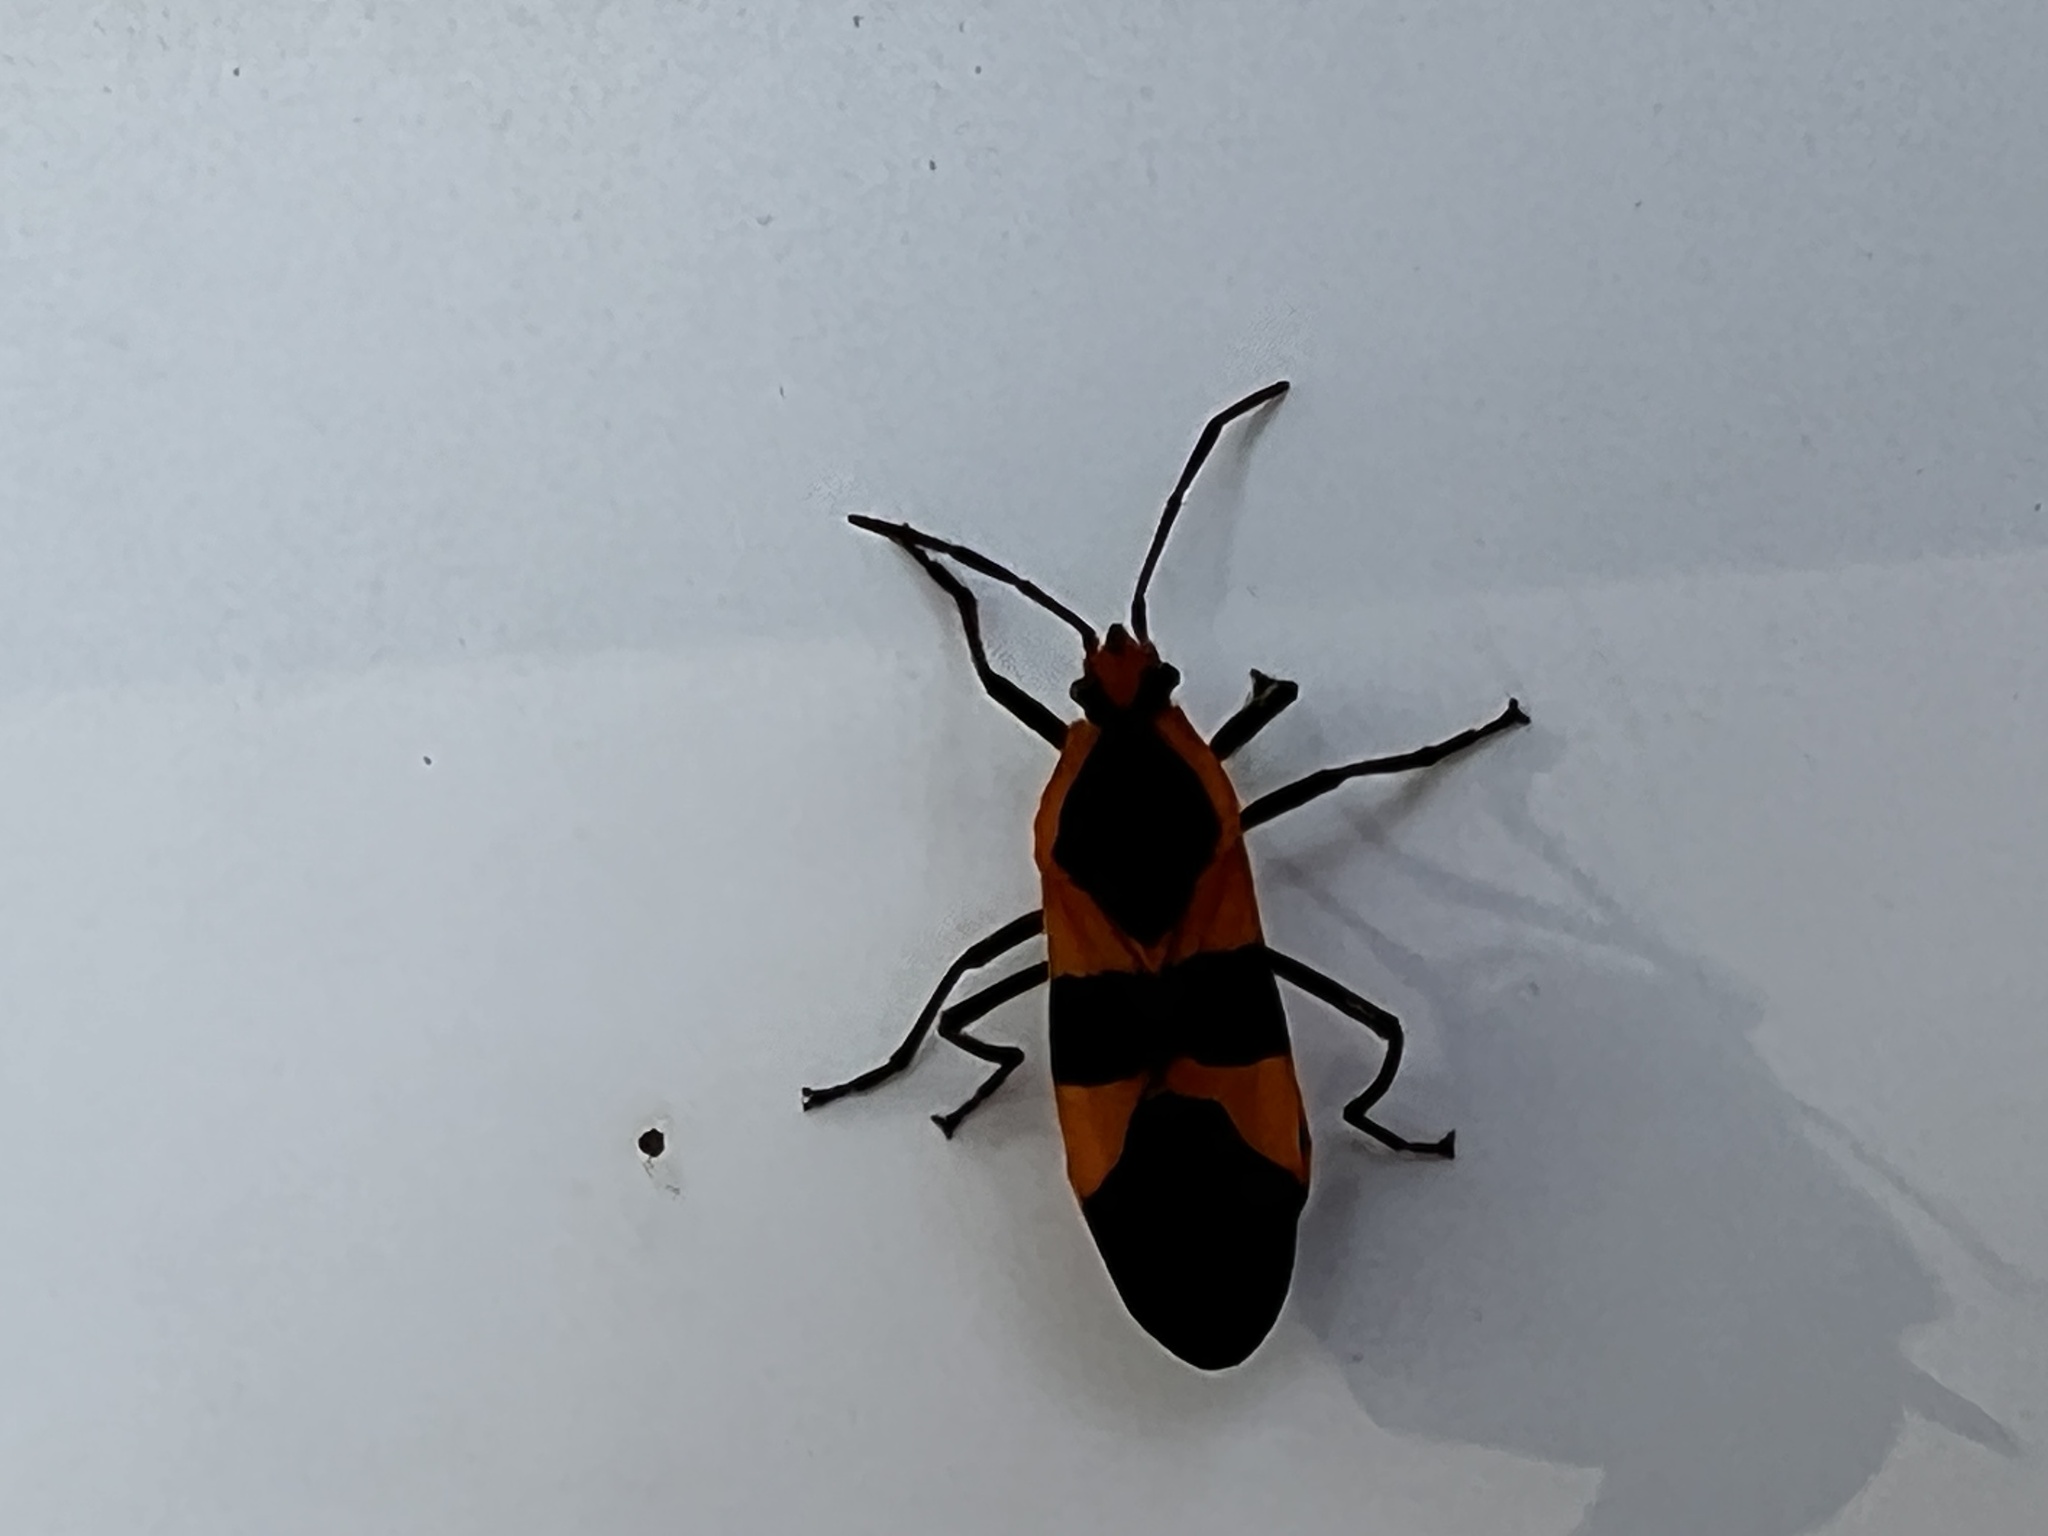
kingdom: Animalia
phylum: Arthropoda
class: Insecta
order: Hemiptera
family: Lygaeidae
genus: Oncopeltus
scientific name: Oncopeltus fasciatus
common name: Large milkweed bug
